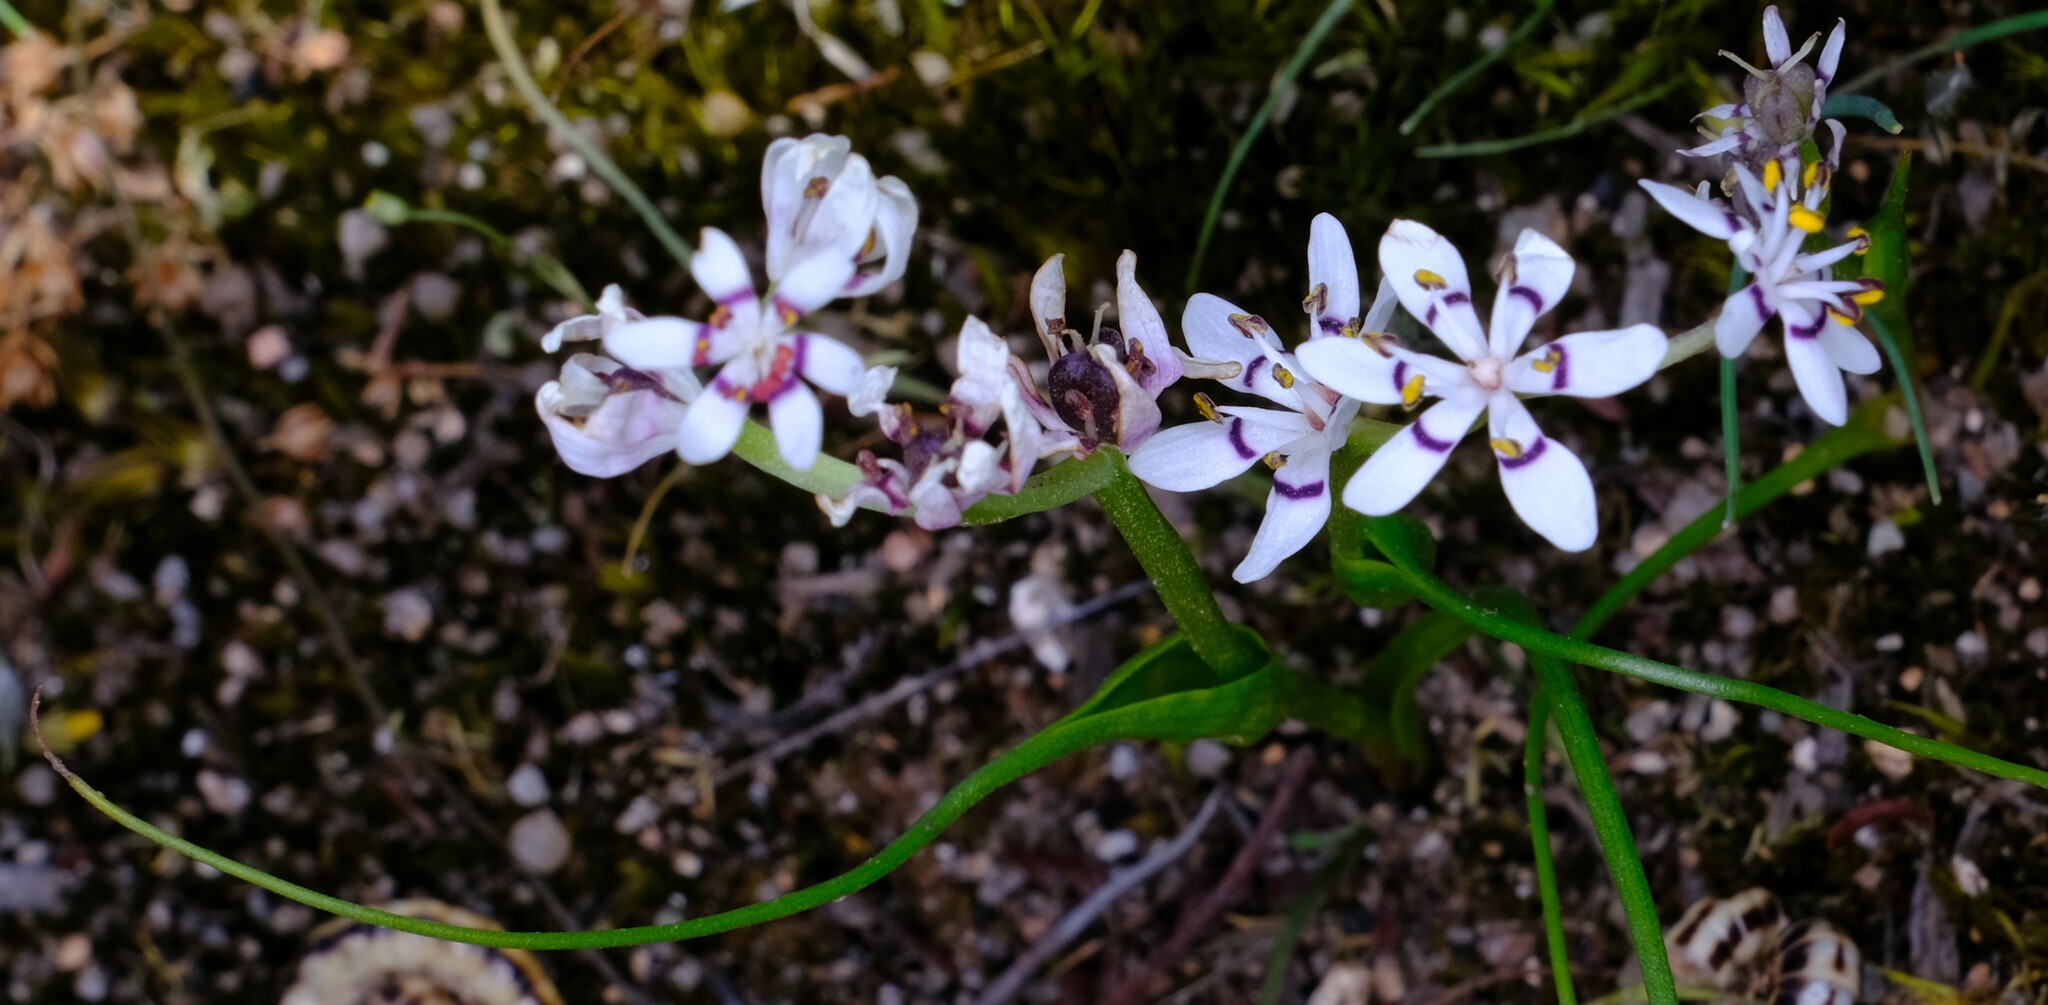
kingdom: Plantae
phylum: Tracheophyta
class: Liliopsida
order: Liliales
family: Colchicaceae
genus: Wurmbea
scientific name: Wurmbea dioica
